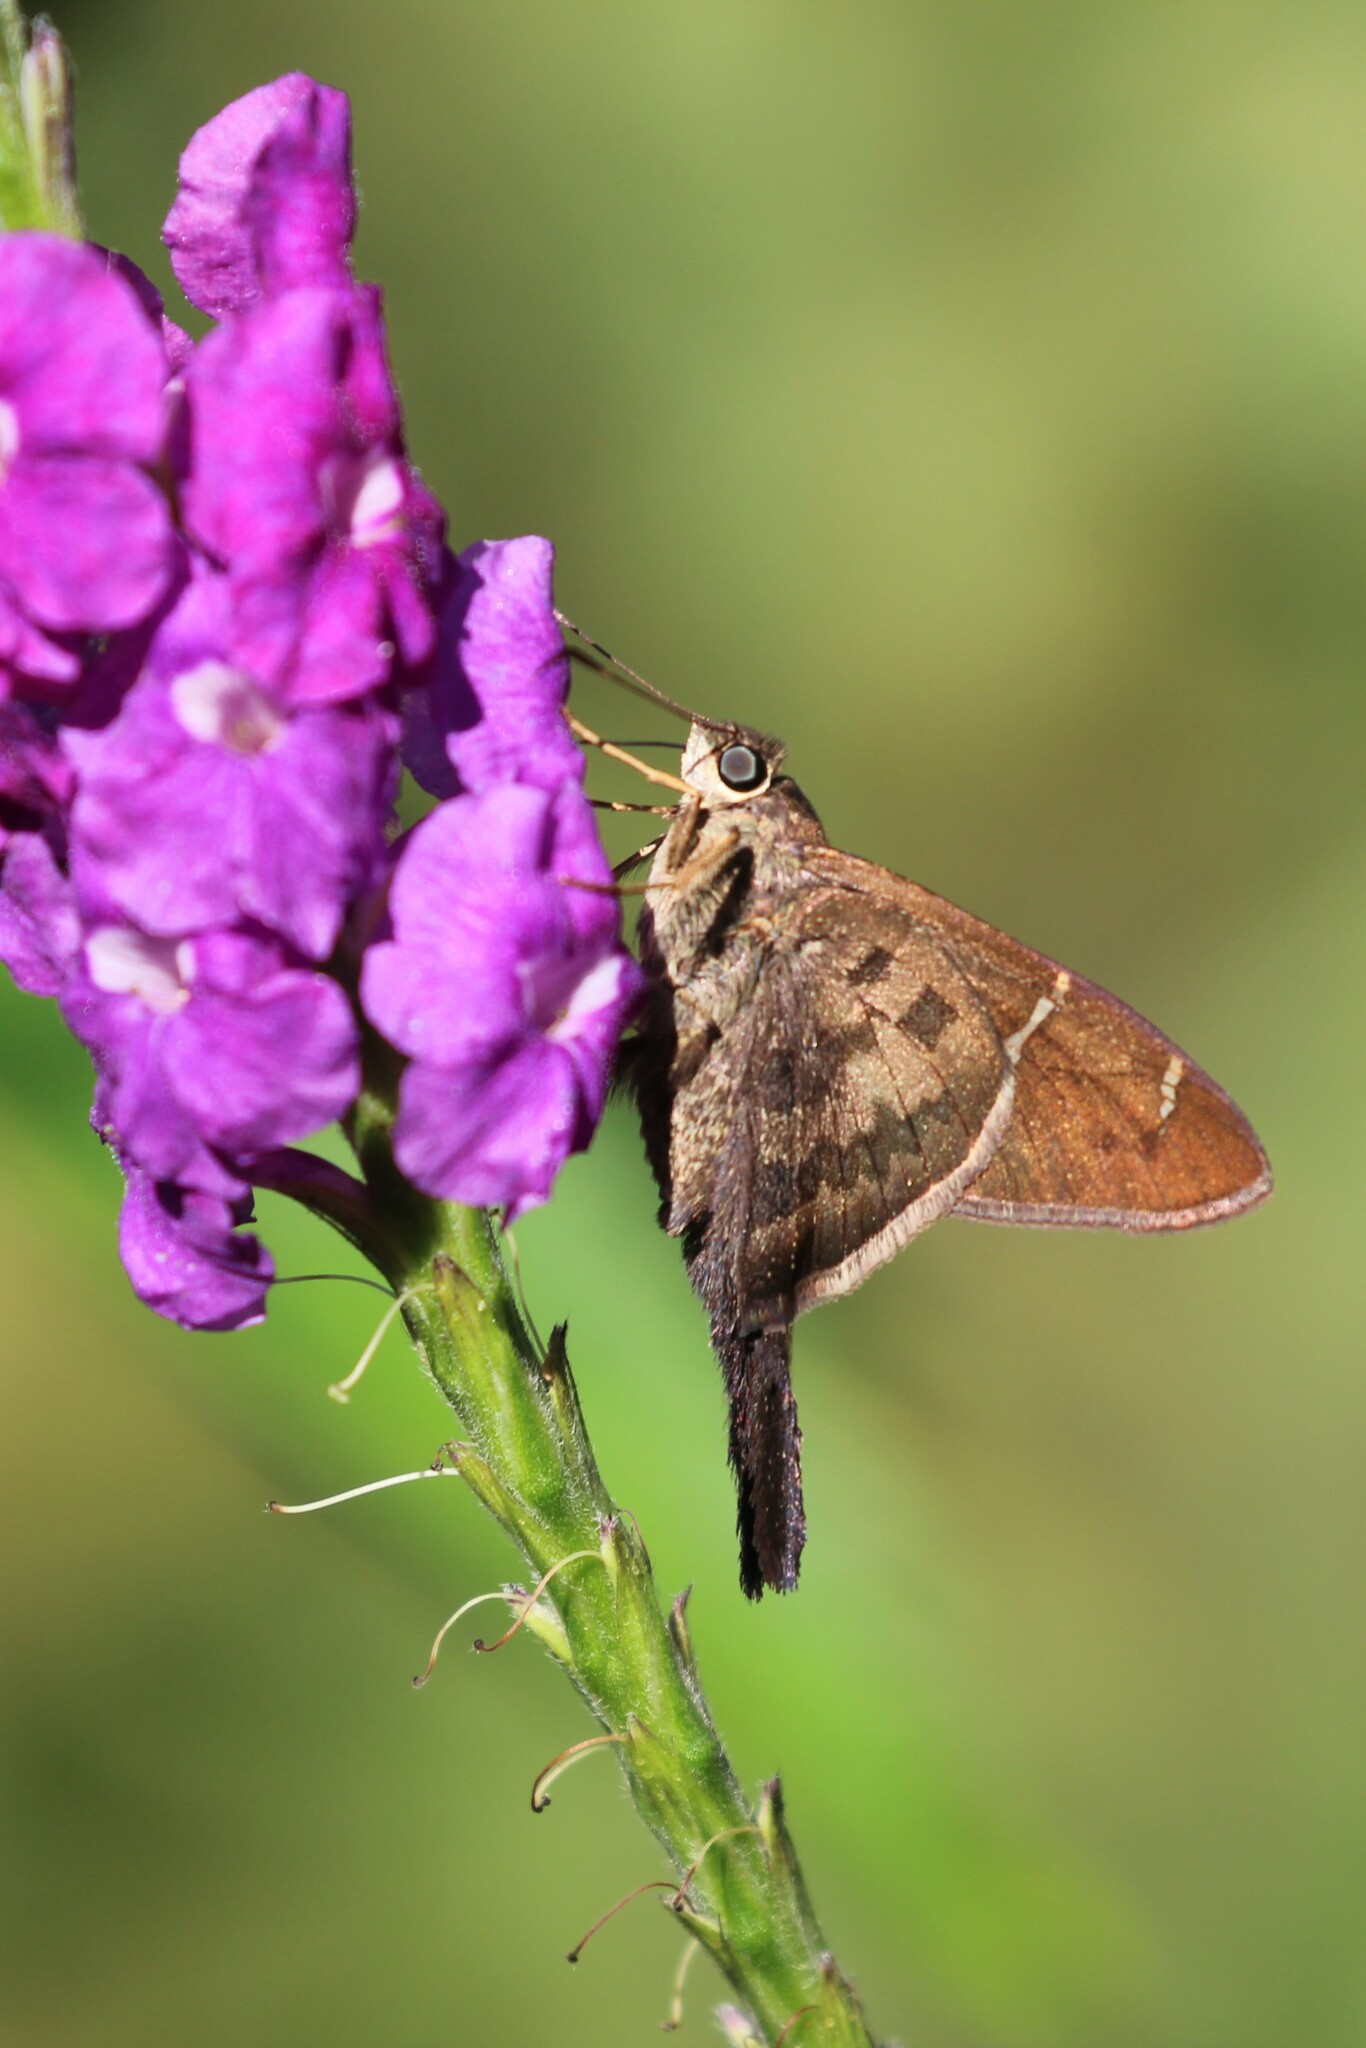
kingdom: Animalia
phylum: Arthropoda
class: Insecta
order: Lepidoptera
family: Hesperiidae
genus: Urbanus
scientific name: Urbanus teleus
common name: Teleus longtail
